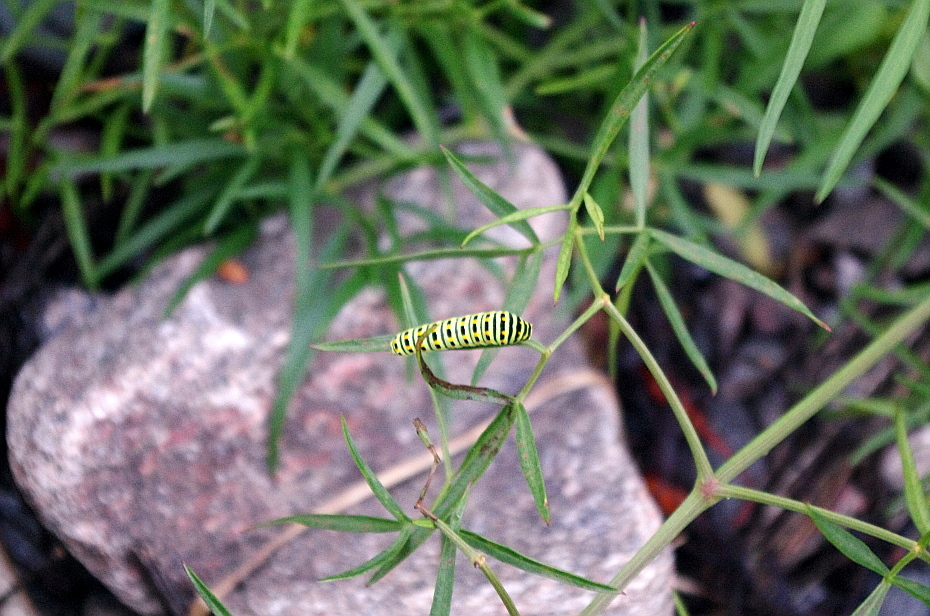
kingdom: Plantae
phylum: Tracheophyta
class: Magnoliopsida
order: Apiales
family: Apiaceae
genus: Cenolophium
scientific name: Cenolophium fischeri
